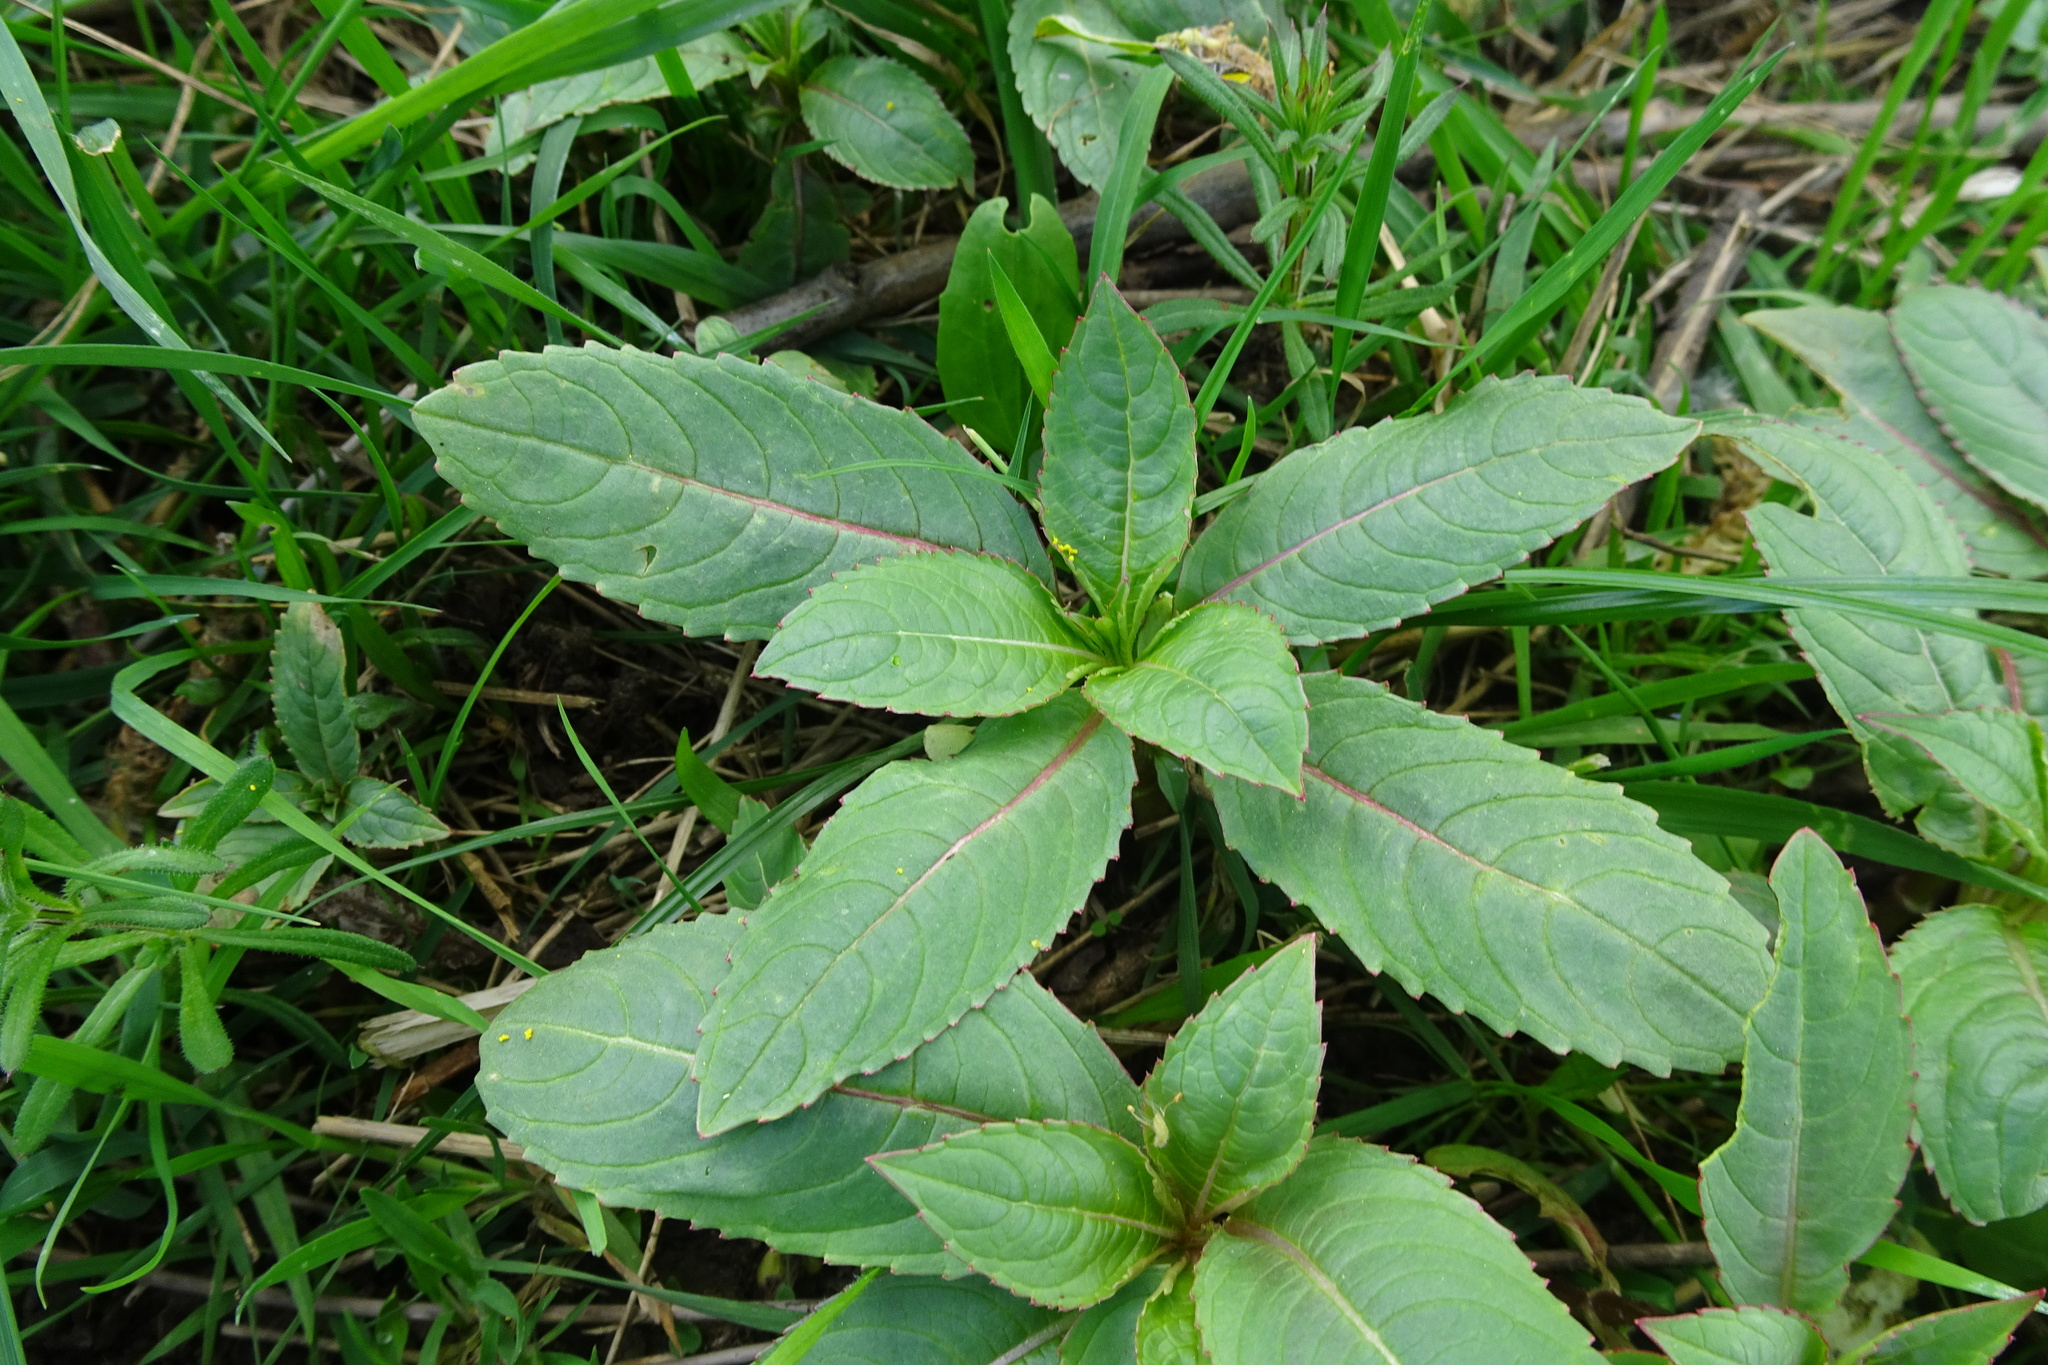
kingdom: Plantae
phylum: Tracheophyta
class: Magnoliopsida
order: Ericales
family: Balsaminaceae
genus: Impatiens
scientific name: Impatiens glandulifera
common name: Himalayan balsam
